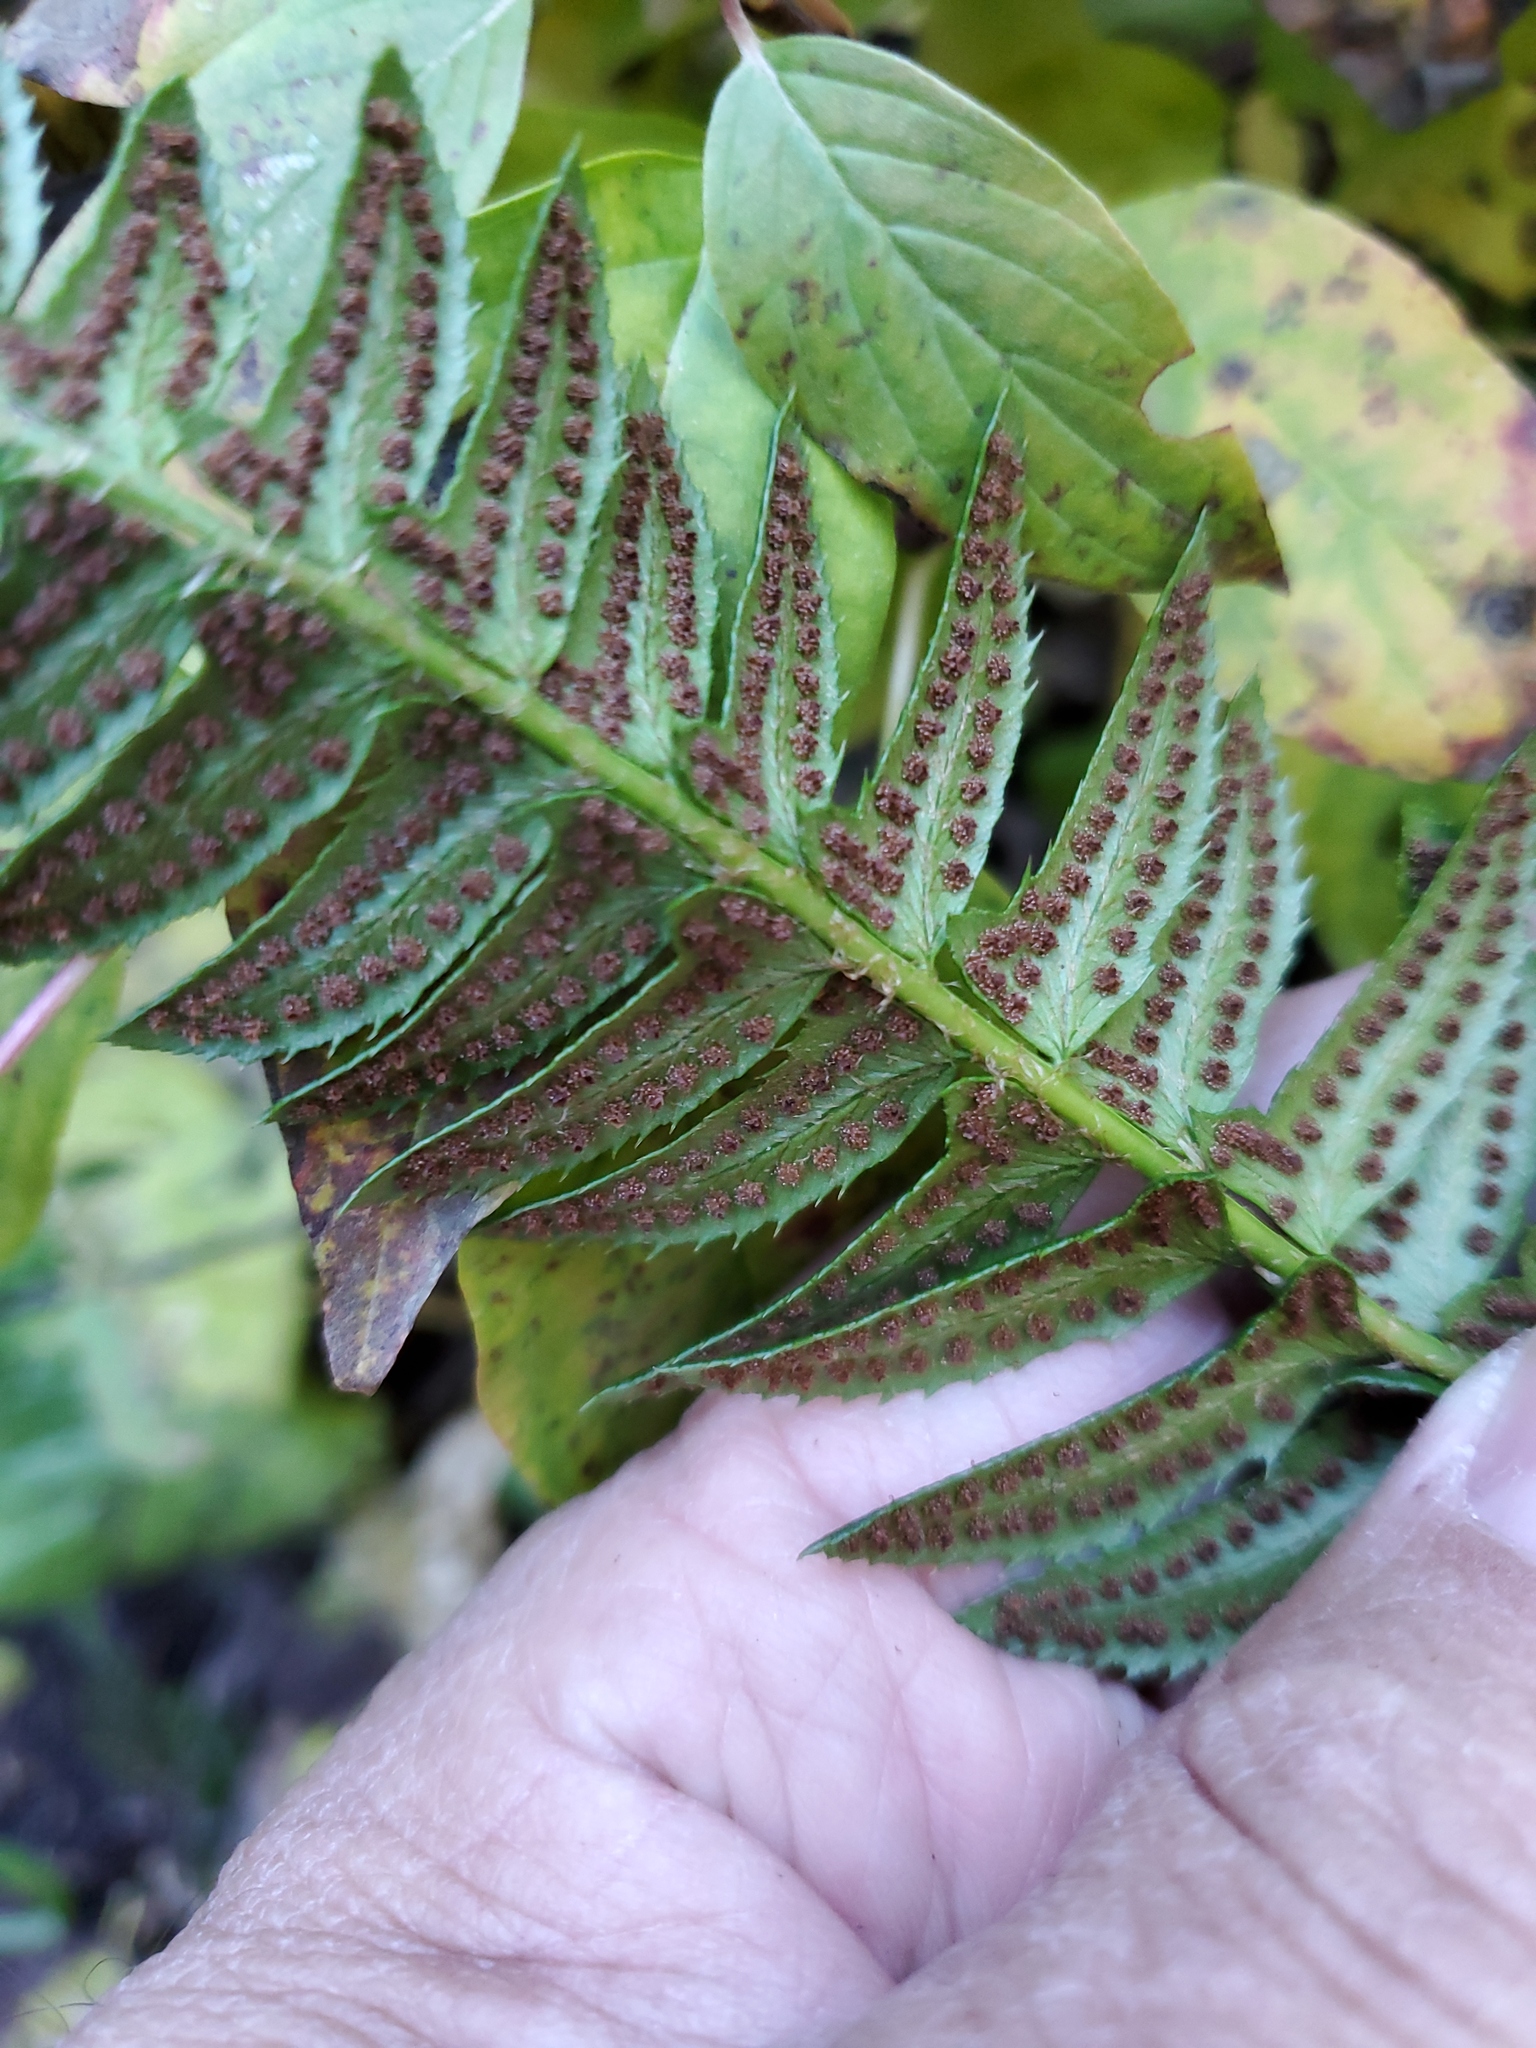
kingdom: Plantae
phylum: Tracheophyta
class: Polypodiopsida
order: Polypodiales
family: Dryopteridaceae
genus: Polystichum
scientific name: Polystichum lonchitis
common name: Holly fern
